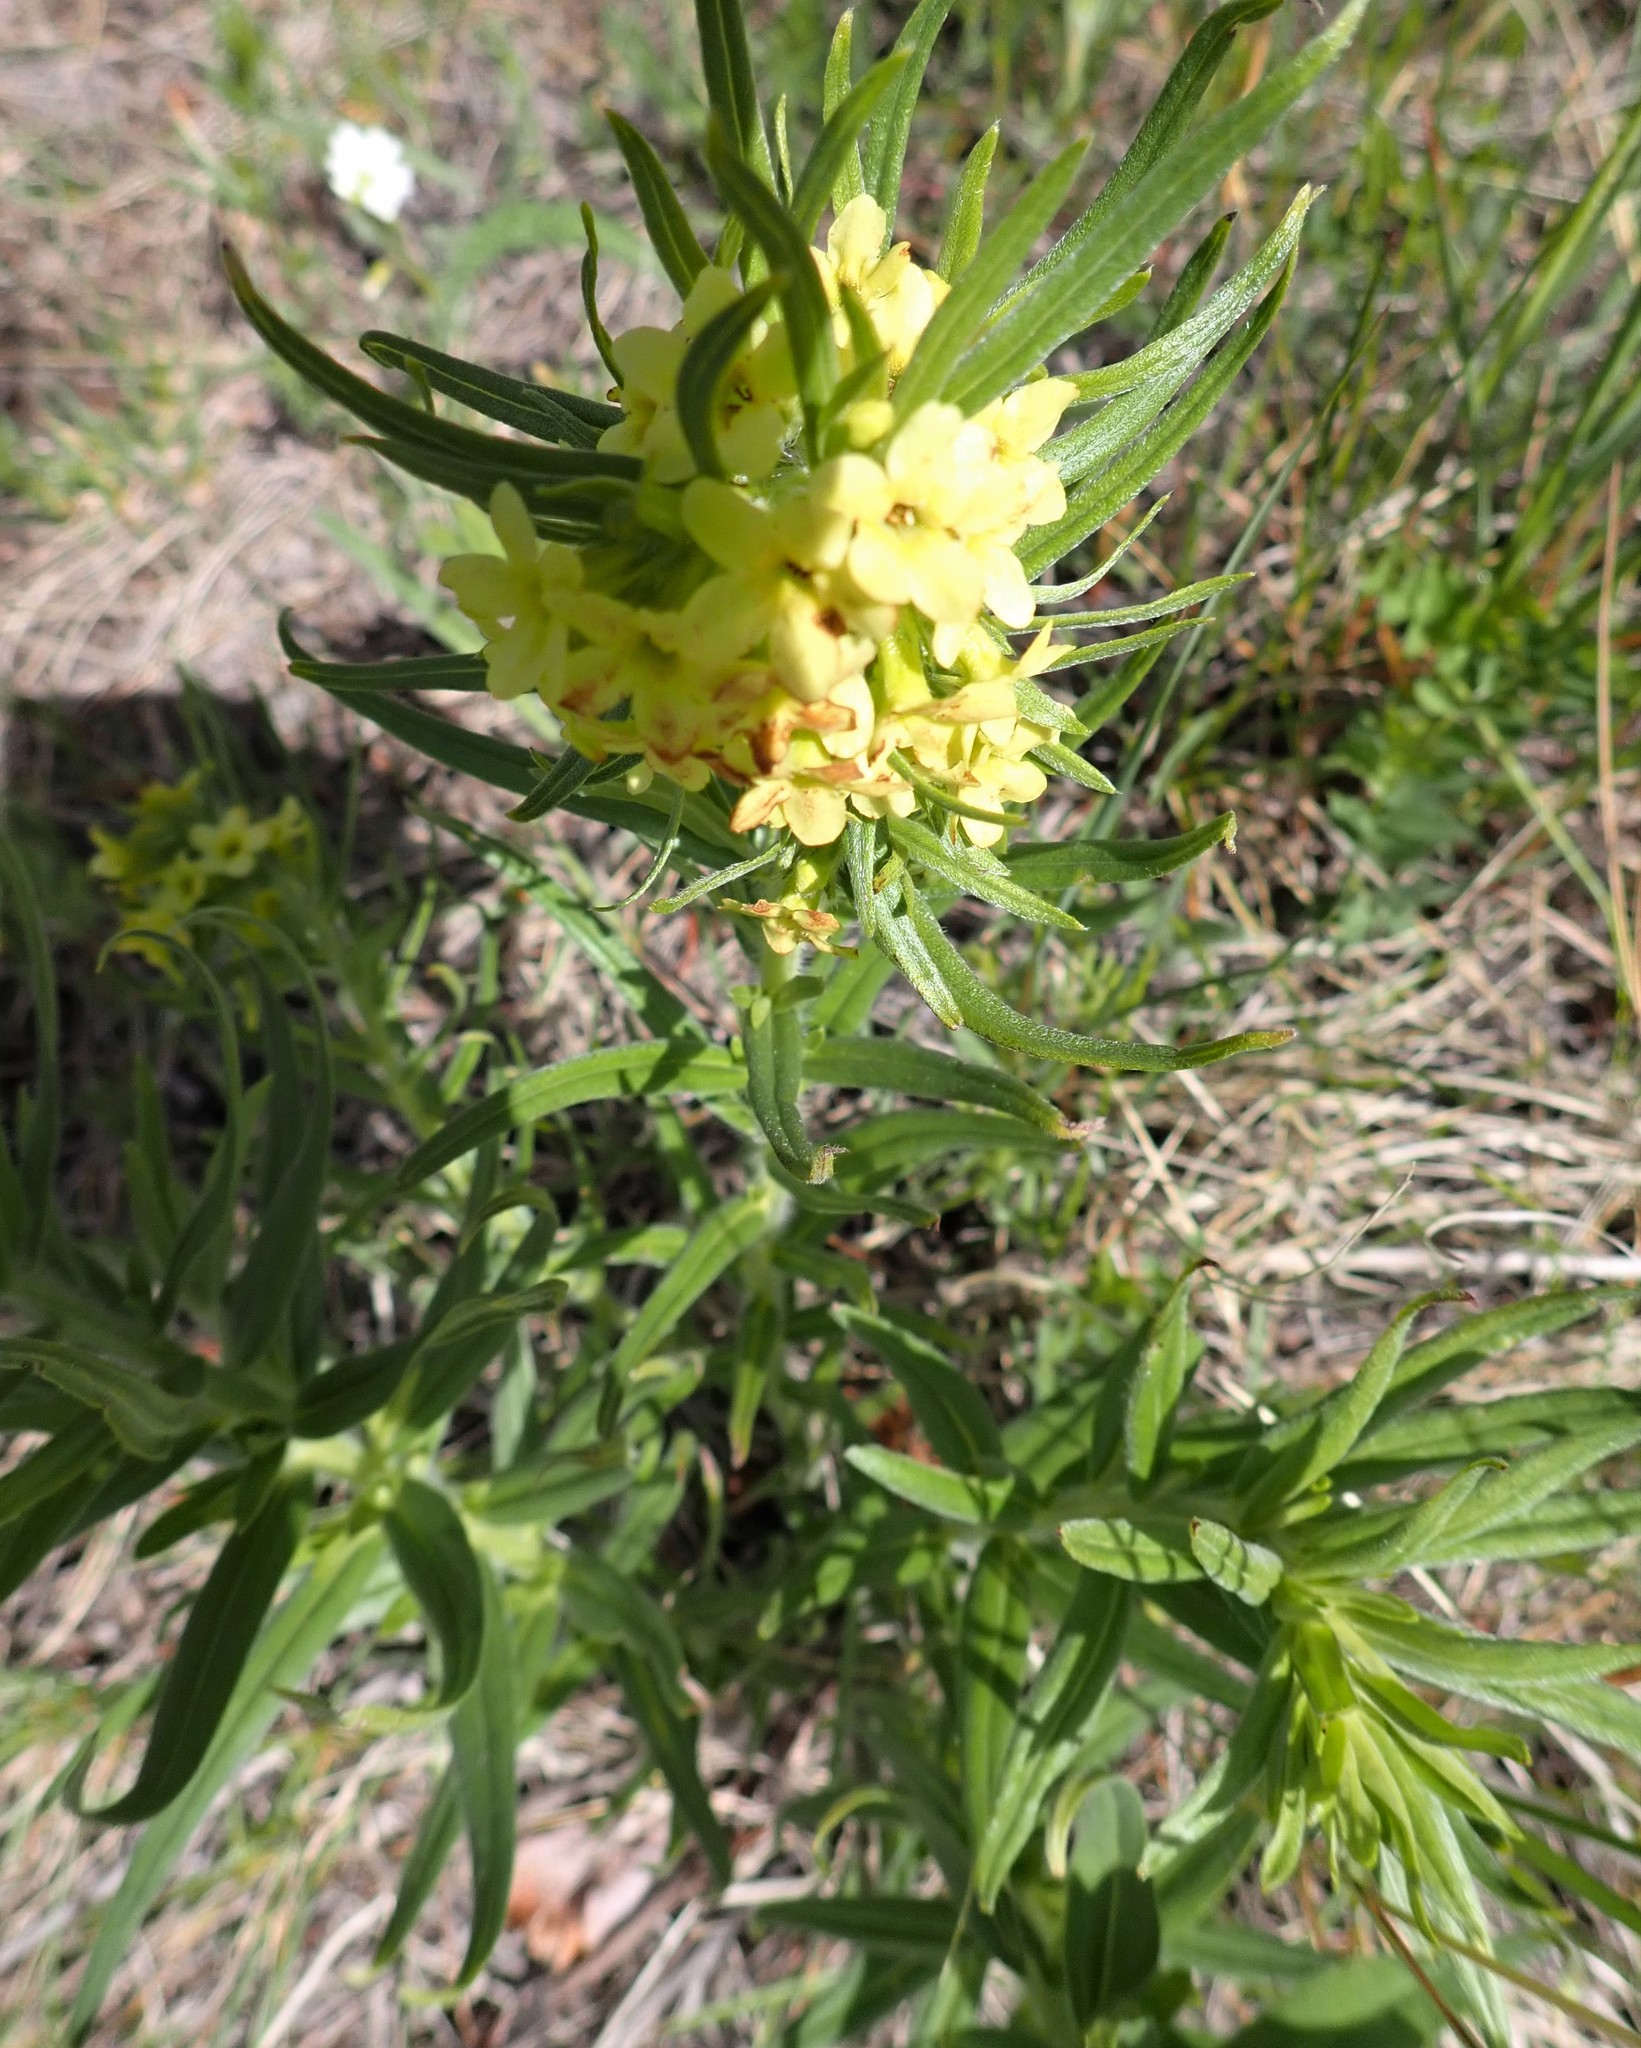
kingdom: Plantae
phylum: Tracheophyta
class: Magnoliopsida
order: Boraginales
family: Boraginaceae
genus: Lithospermum
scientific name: Lithospermum ruderale
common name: Western gromwell
